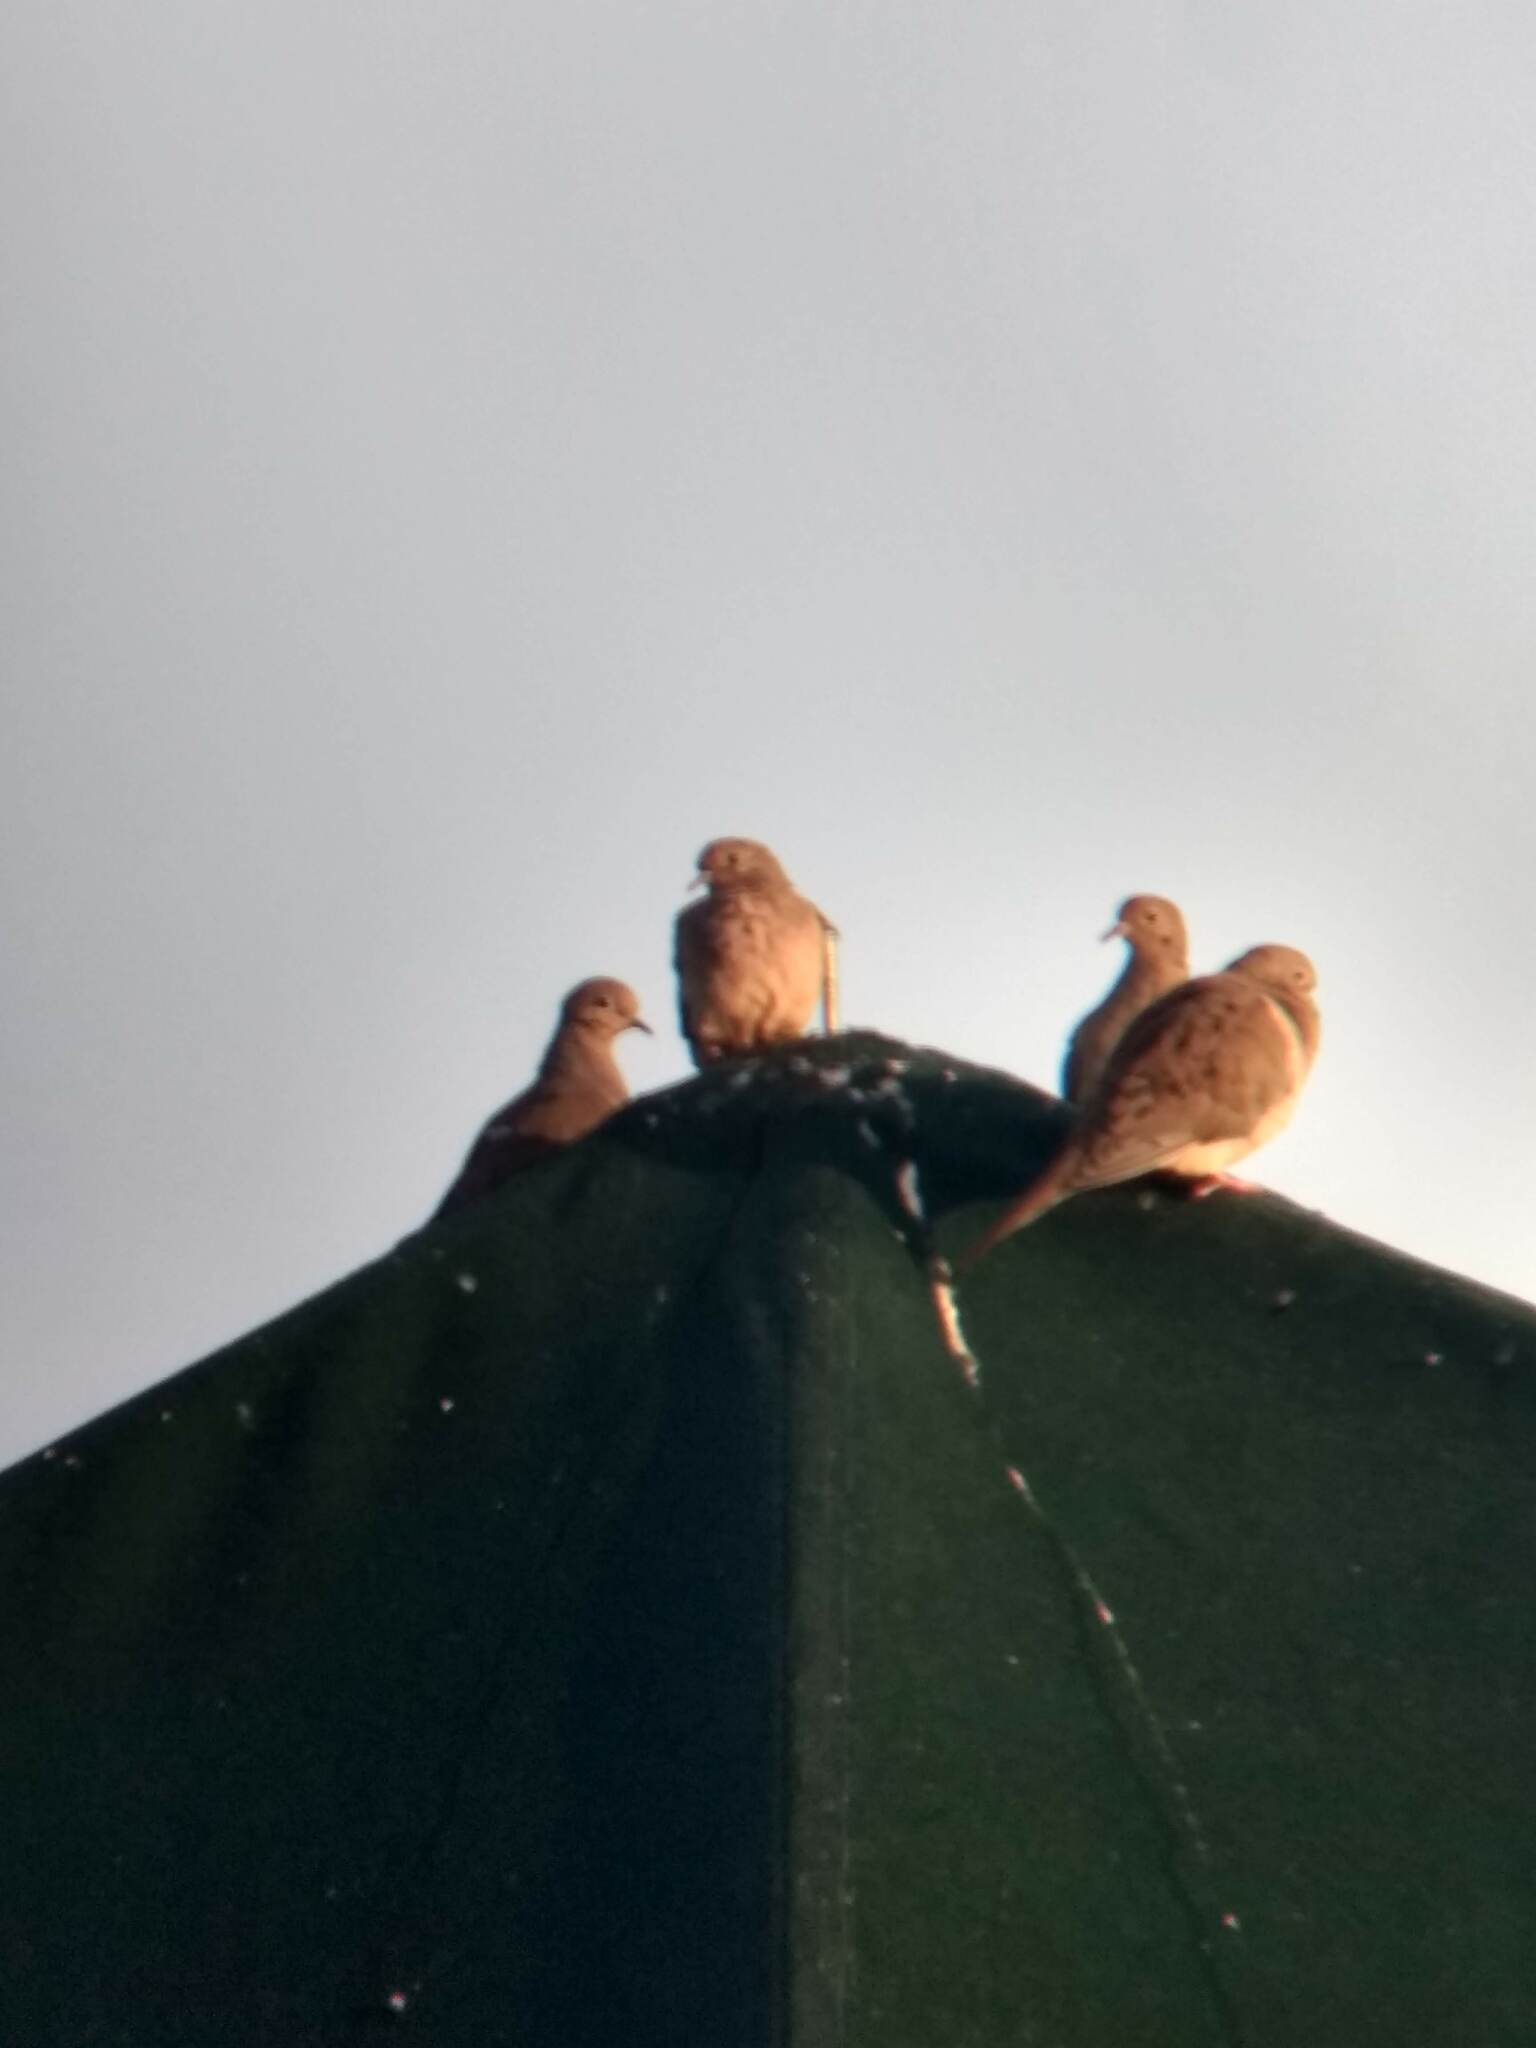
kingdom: Animalia
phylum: Chordata
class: Aves
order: Columbiformes
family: Columbidae
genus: Zenaida
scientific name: Zenaida macroura
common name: Mourning dove
